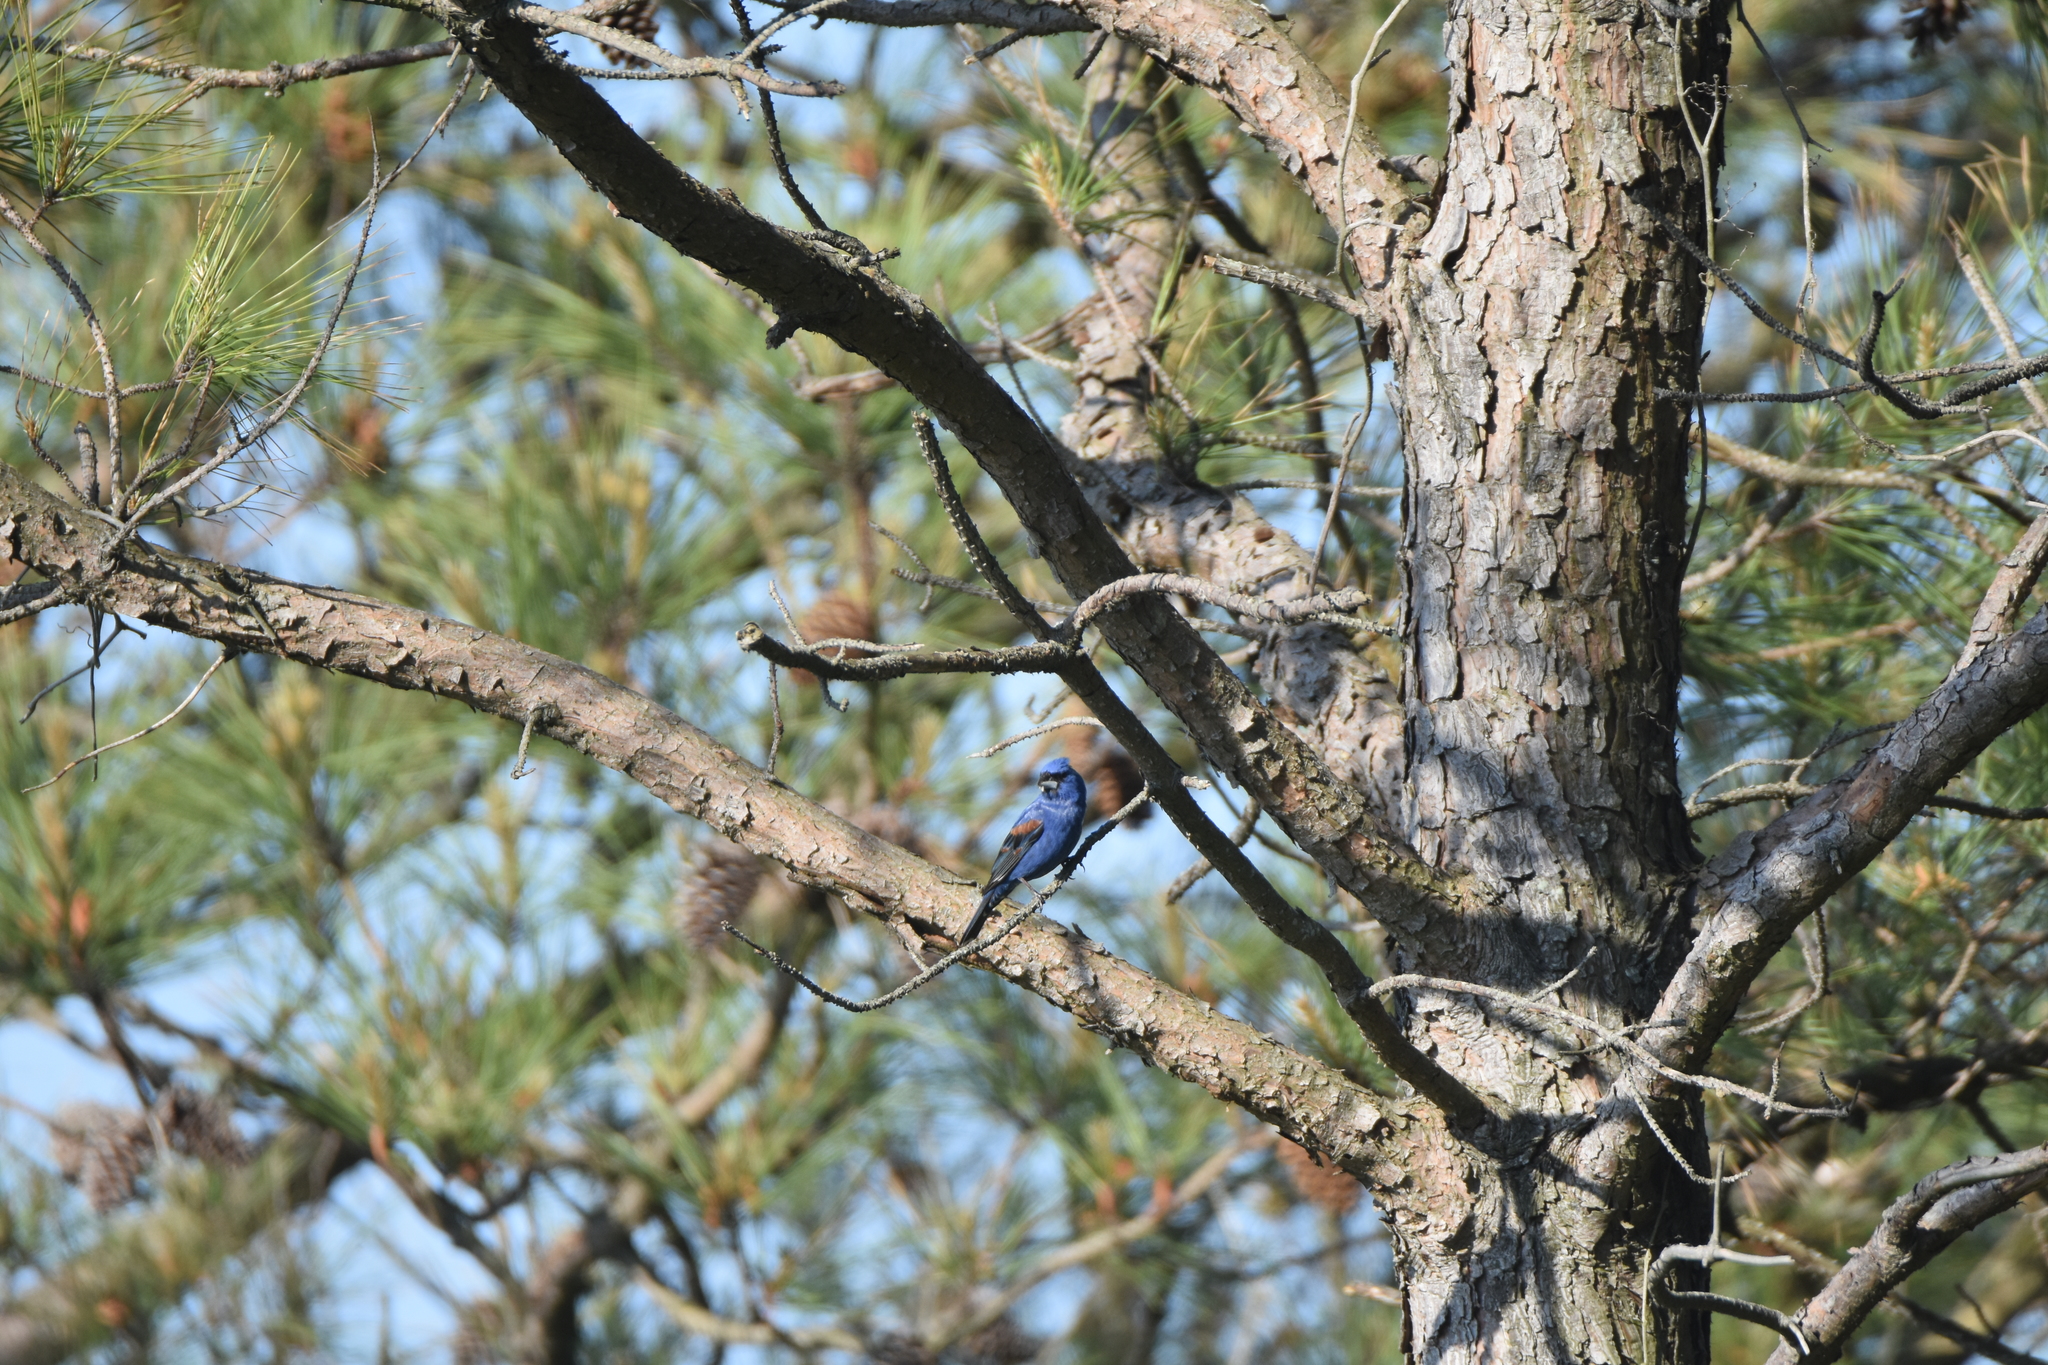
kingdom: Animalia
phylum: Chordata
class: Aves
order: Passeriformes
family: Cardinalidae
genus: Passerina
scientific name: Passerina caerulea
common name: Blue grosbeak
